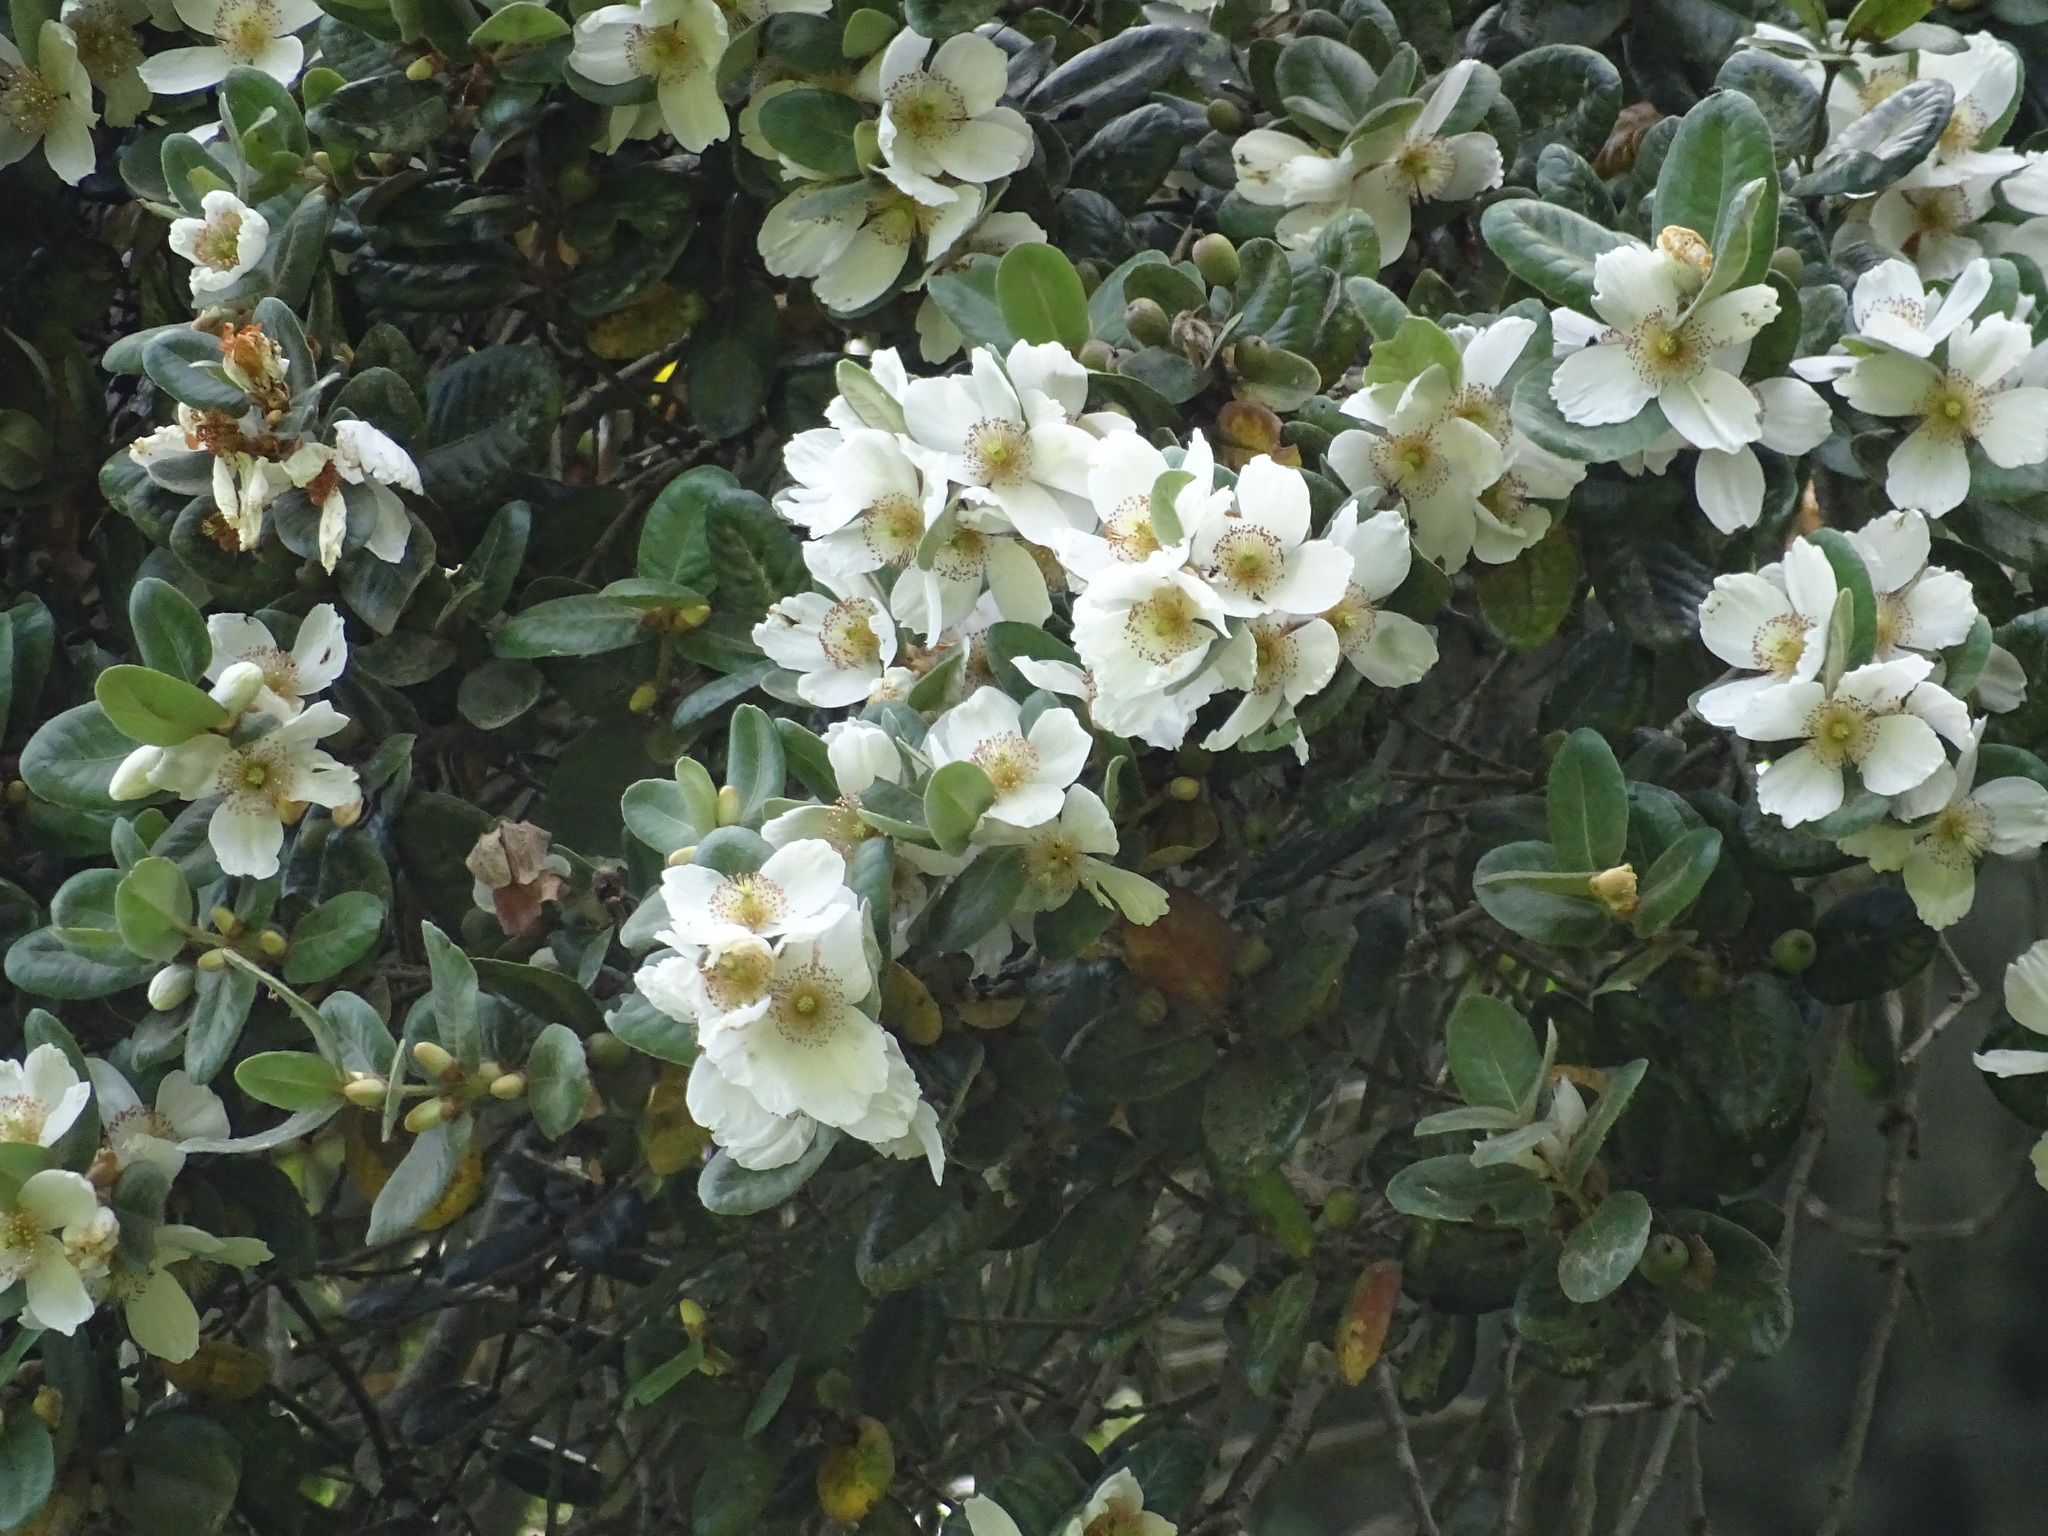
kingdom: Plantae
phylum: Tracheophyta
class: Magnoliopsida
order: Oxalidales
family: Cunoniaceae
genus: Eucryphia
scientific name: Eucryphia cordifolia
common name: Ulmo
